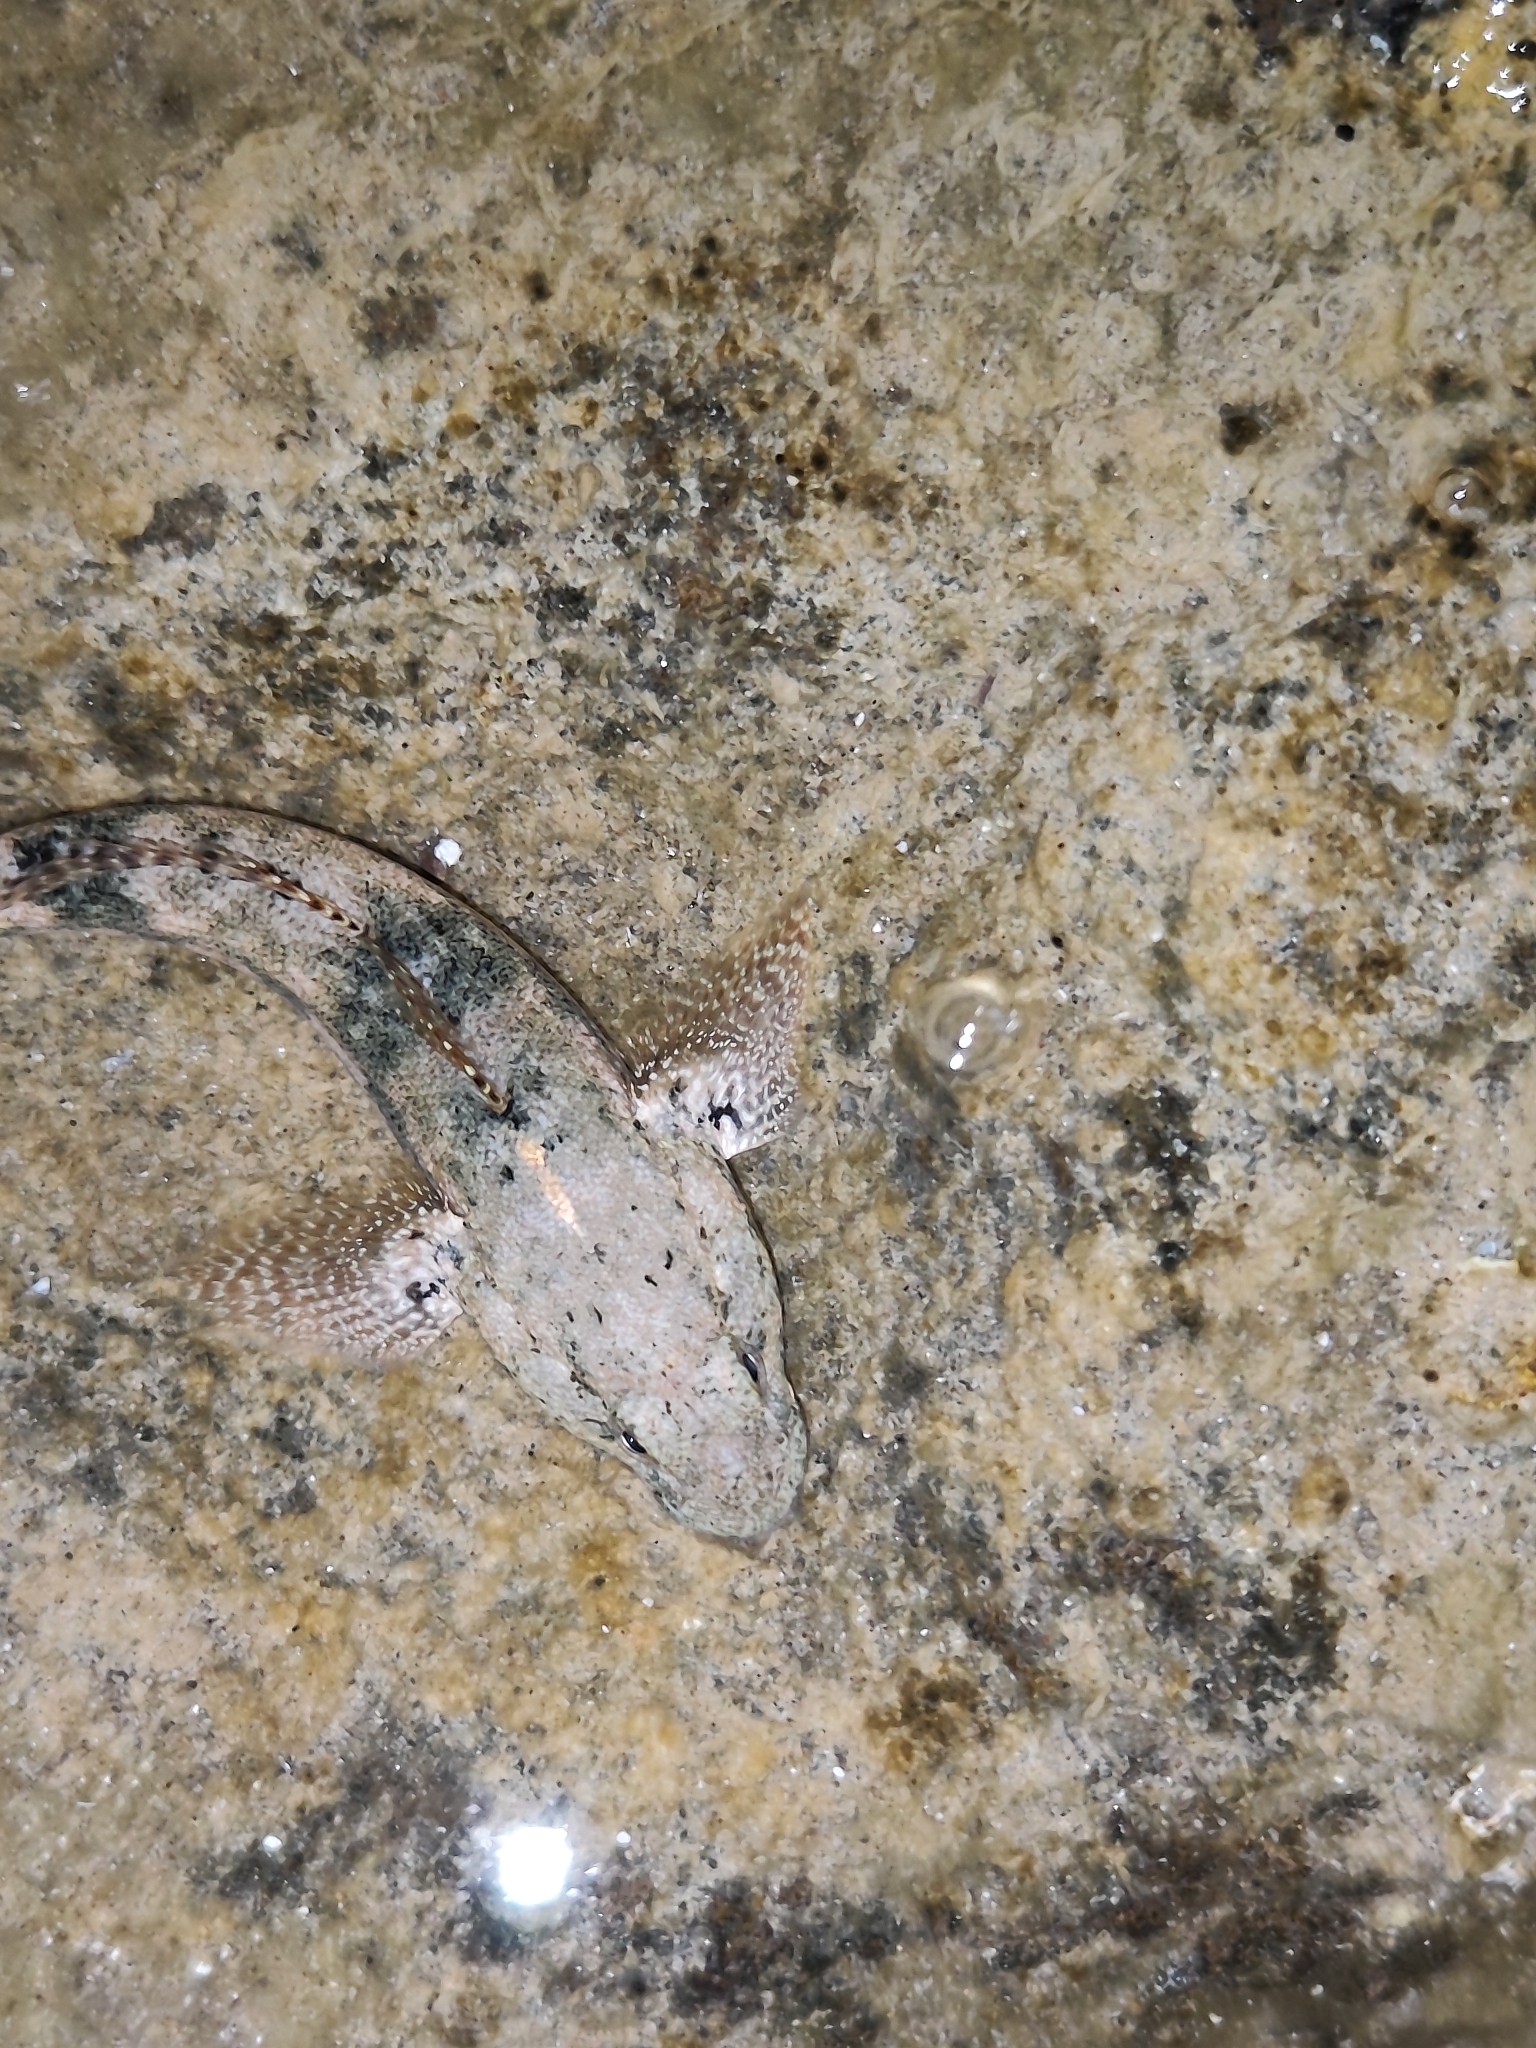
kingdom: Animalia
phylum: Chordata
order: Perciformes
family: Gobiidae
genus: Gobius
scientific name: Gobius cobitis
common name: Giant goby
